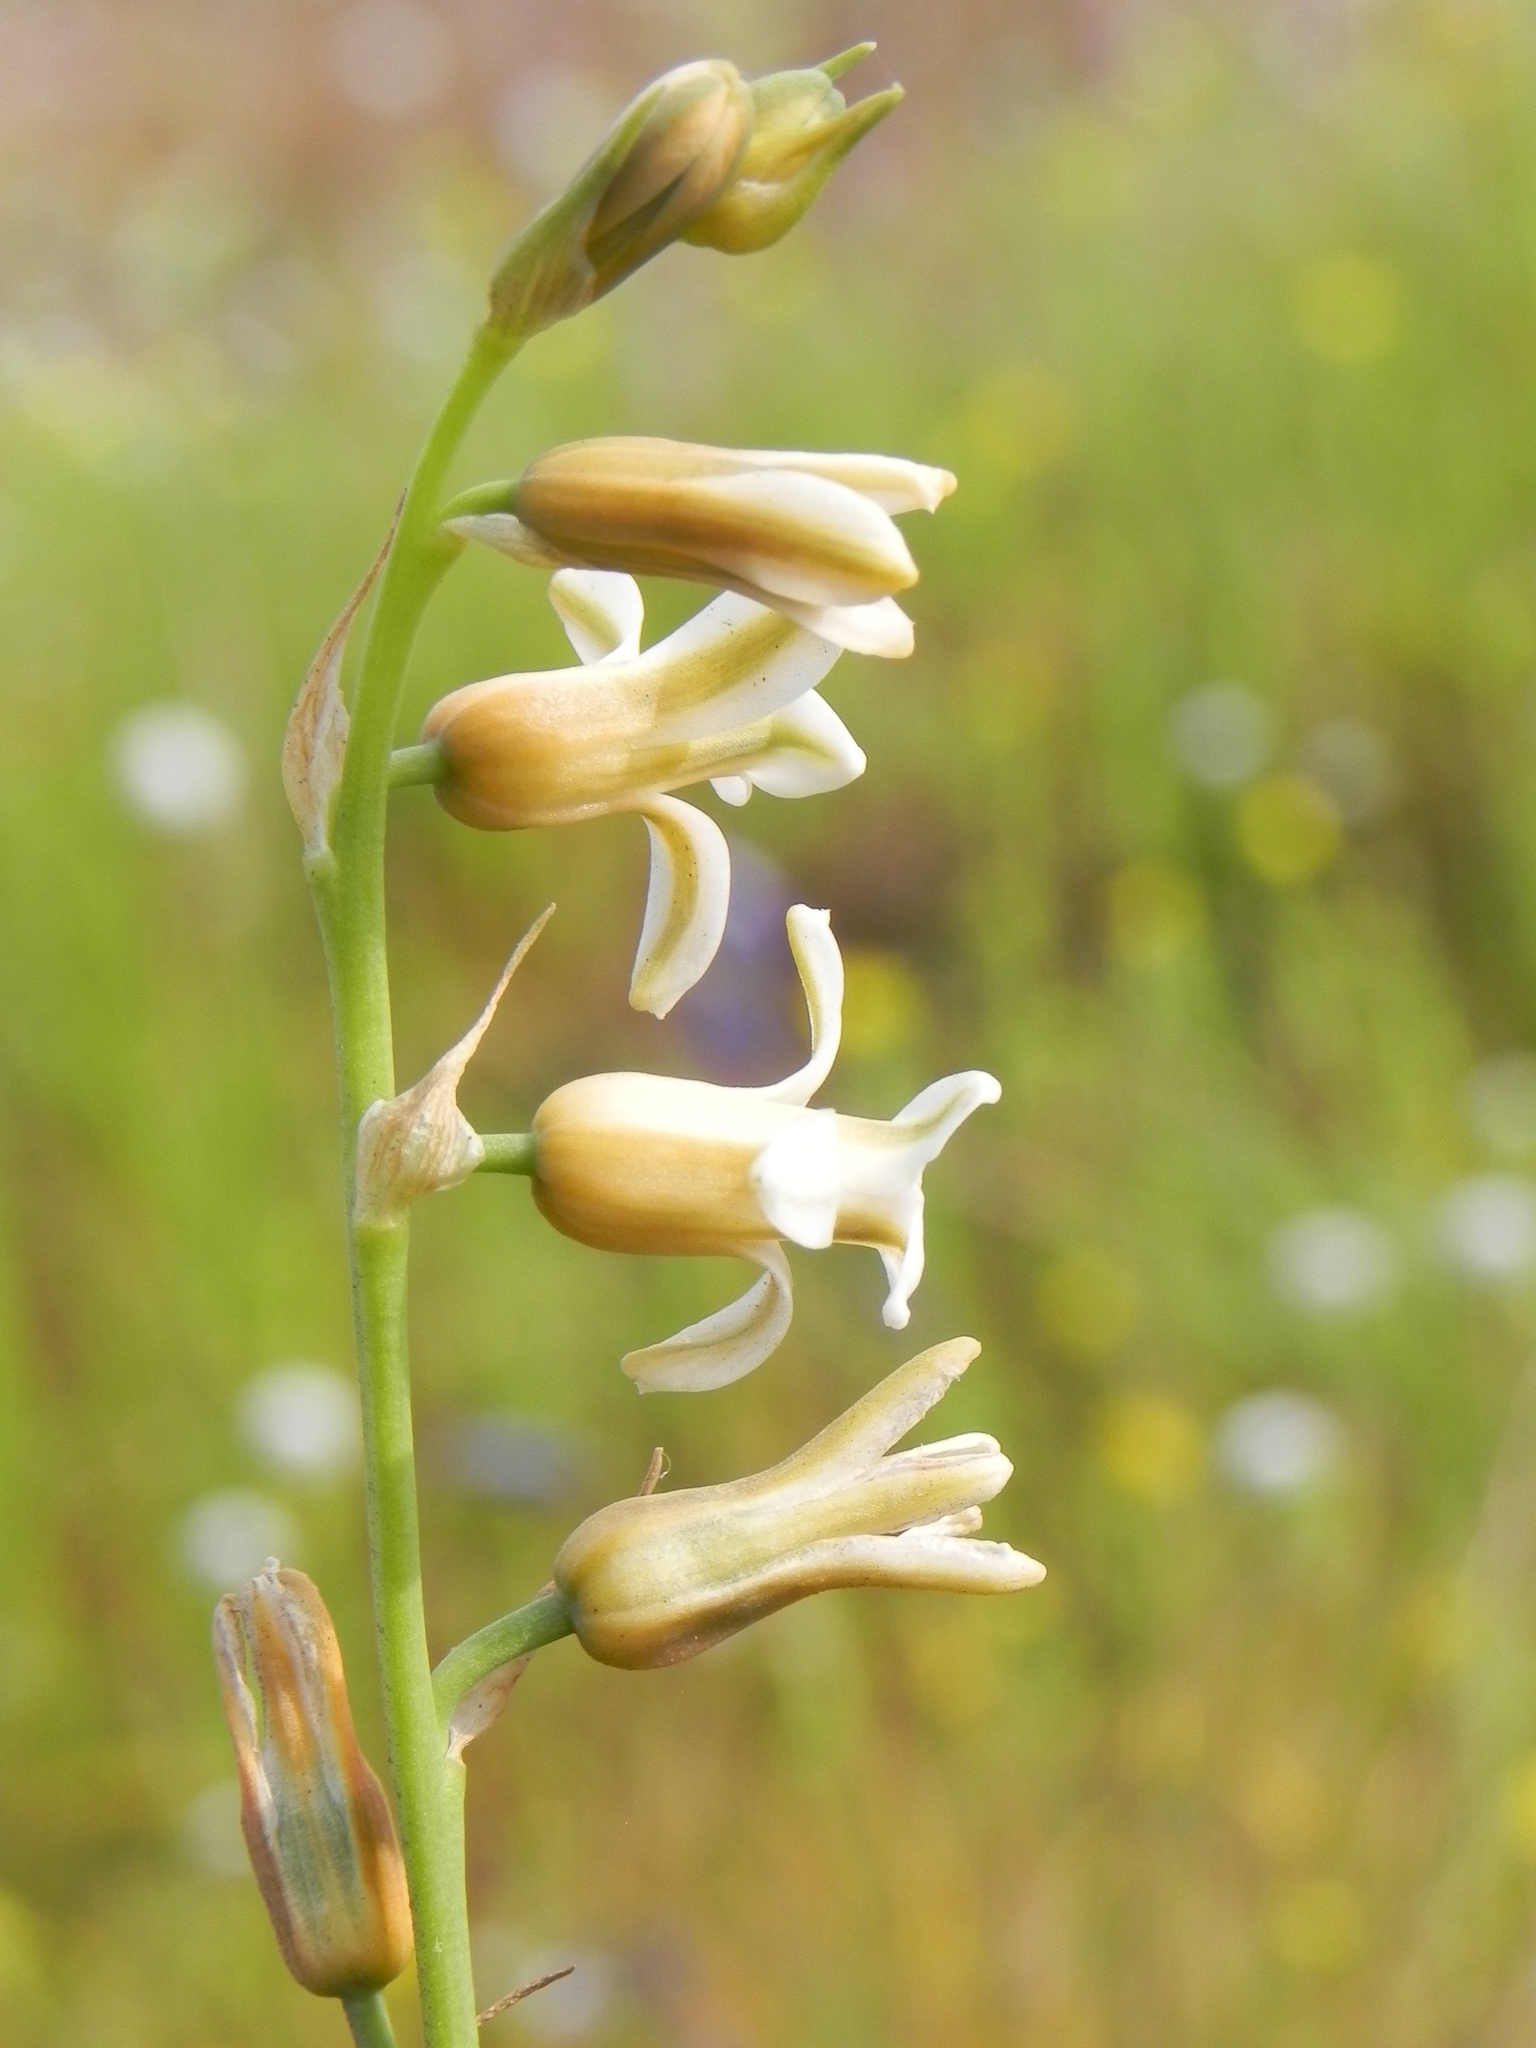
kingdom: Plantae
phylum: Tracheophyta
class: Liliopsida
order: Asparagales
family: Asparagaceae
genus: Dipcadi
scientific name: Dipcadi ursulae
